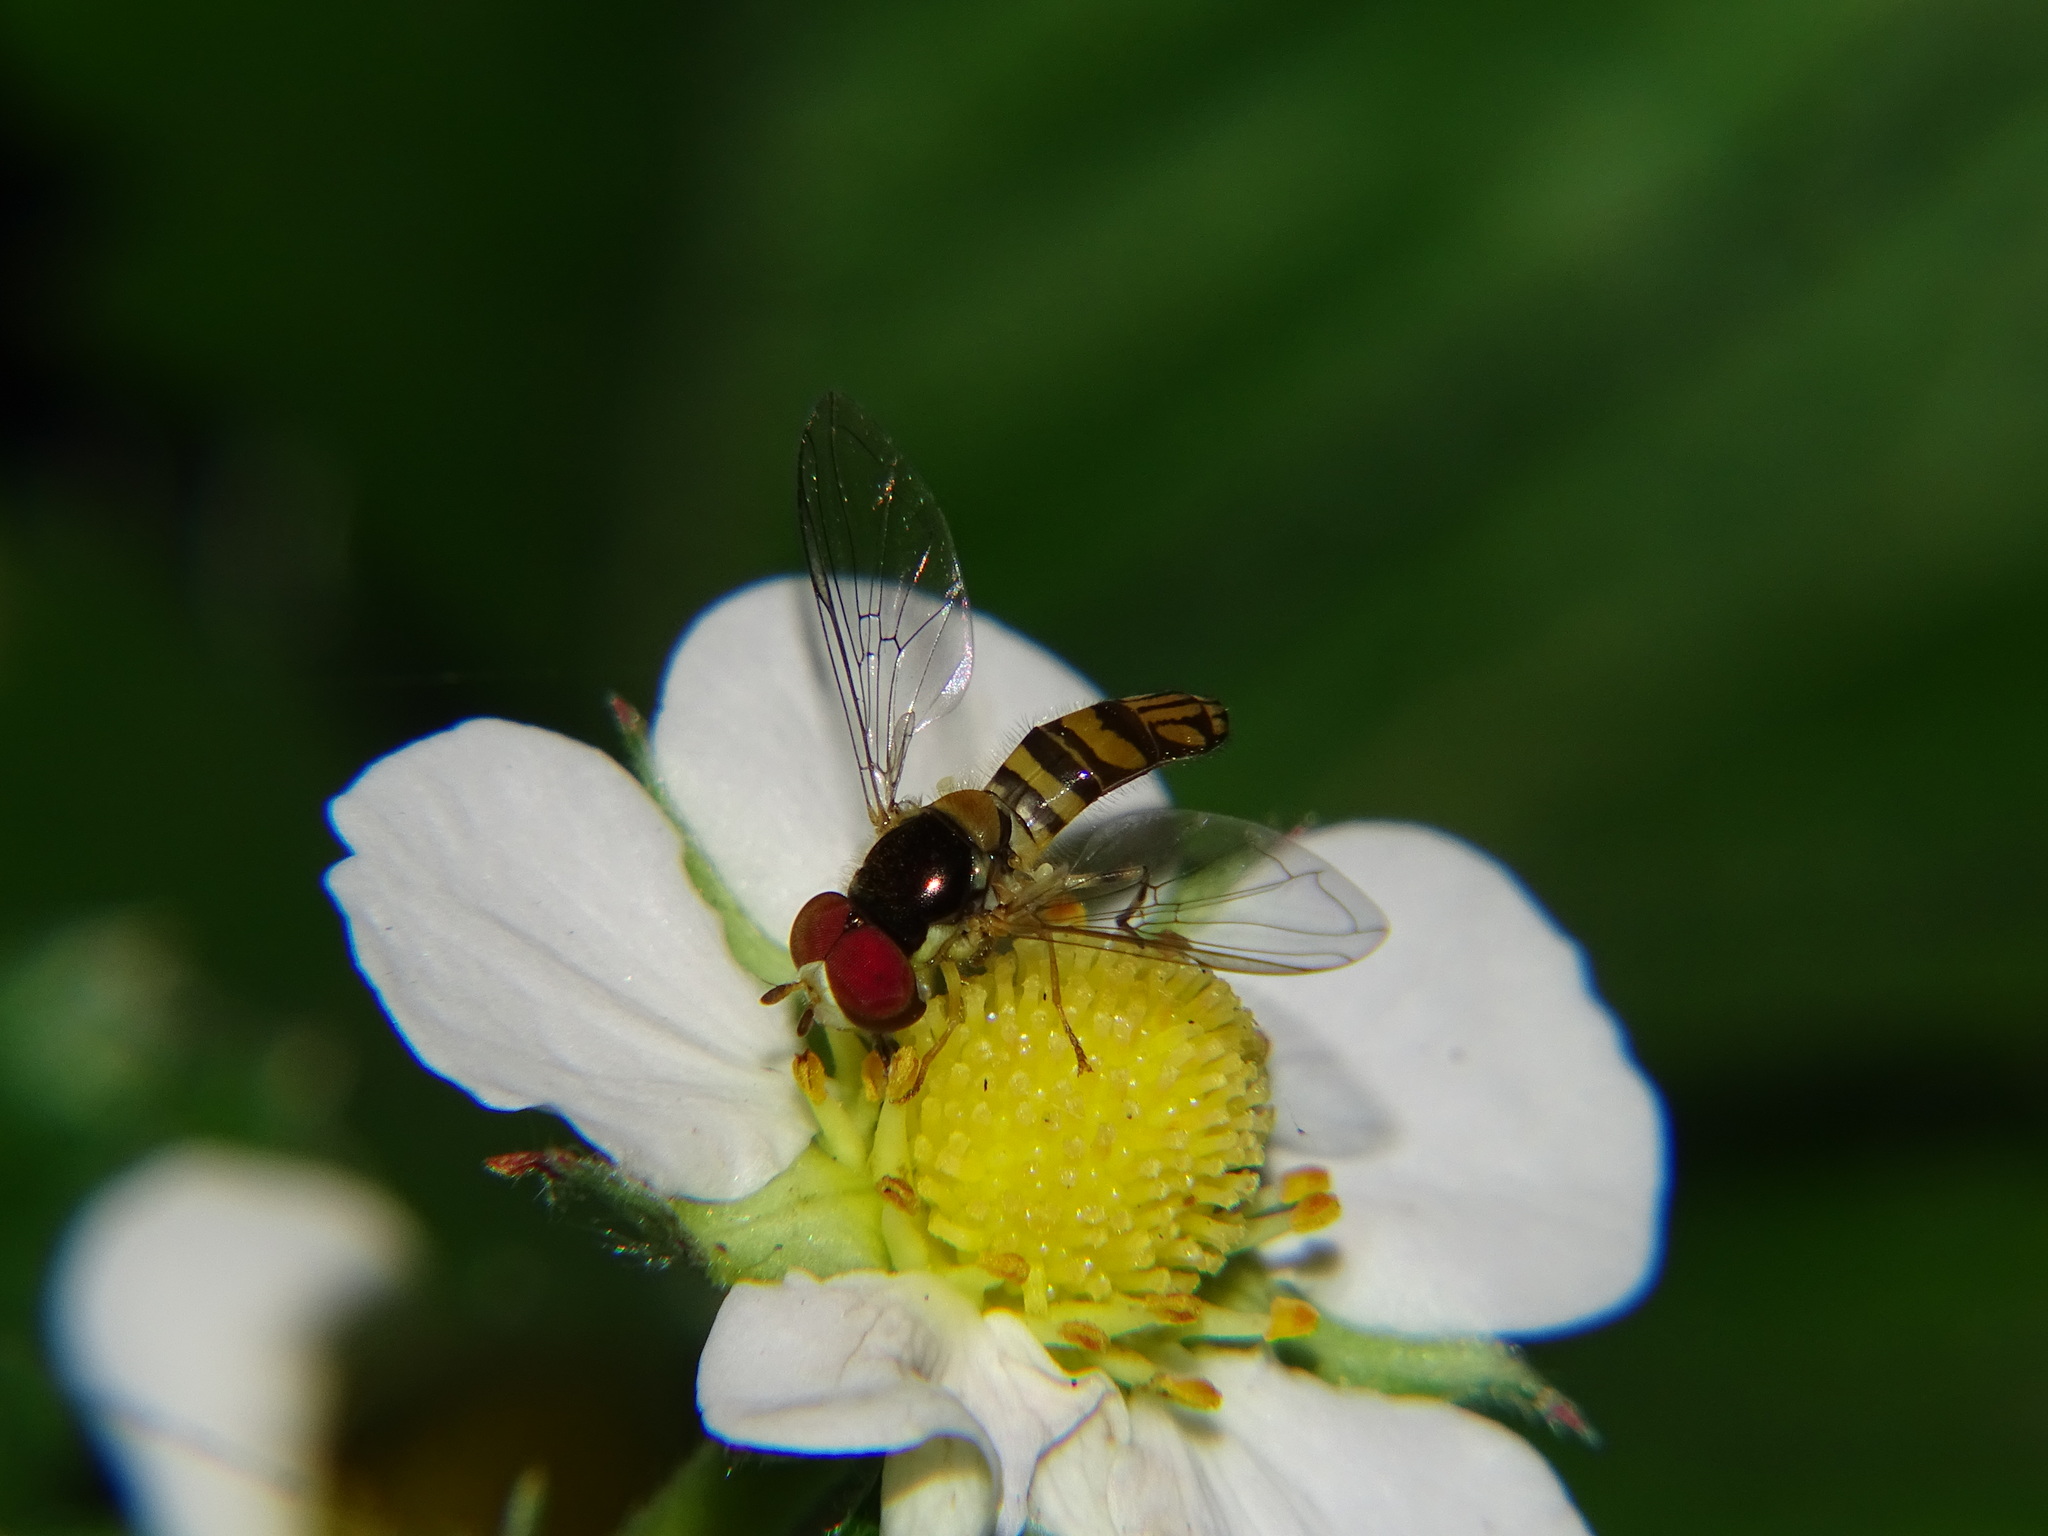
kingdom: Animalia
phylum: Arthropoda
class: Insecta
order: Diptera
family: Syrphidae
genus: Allograpta
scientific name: Allograpta obliqua
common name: Common oblique syrphid
